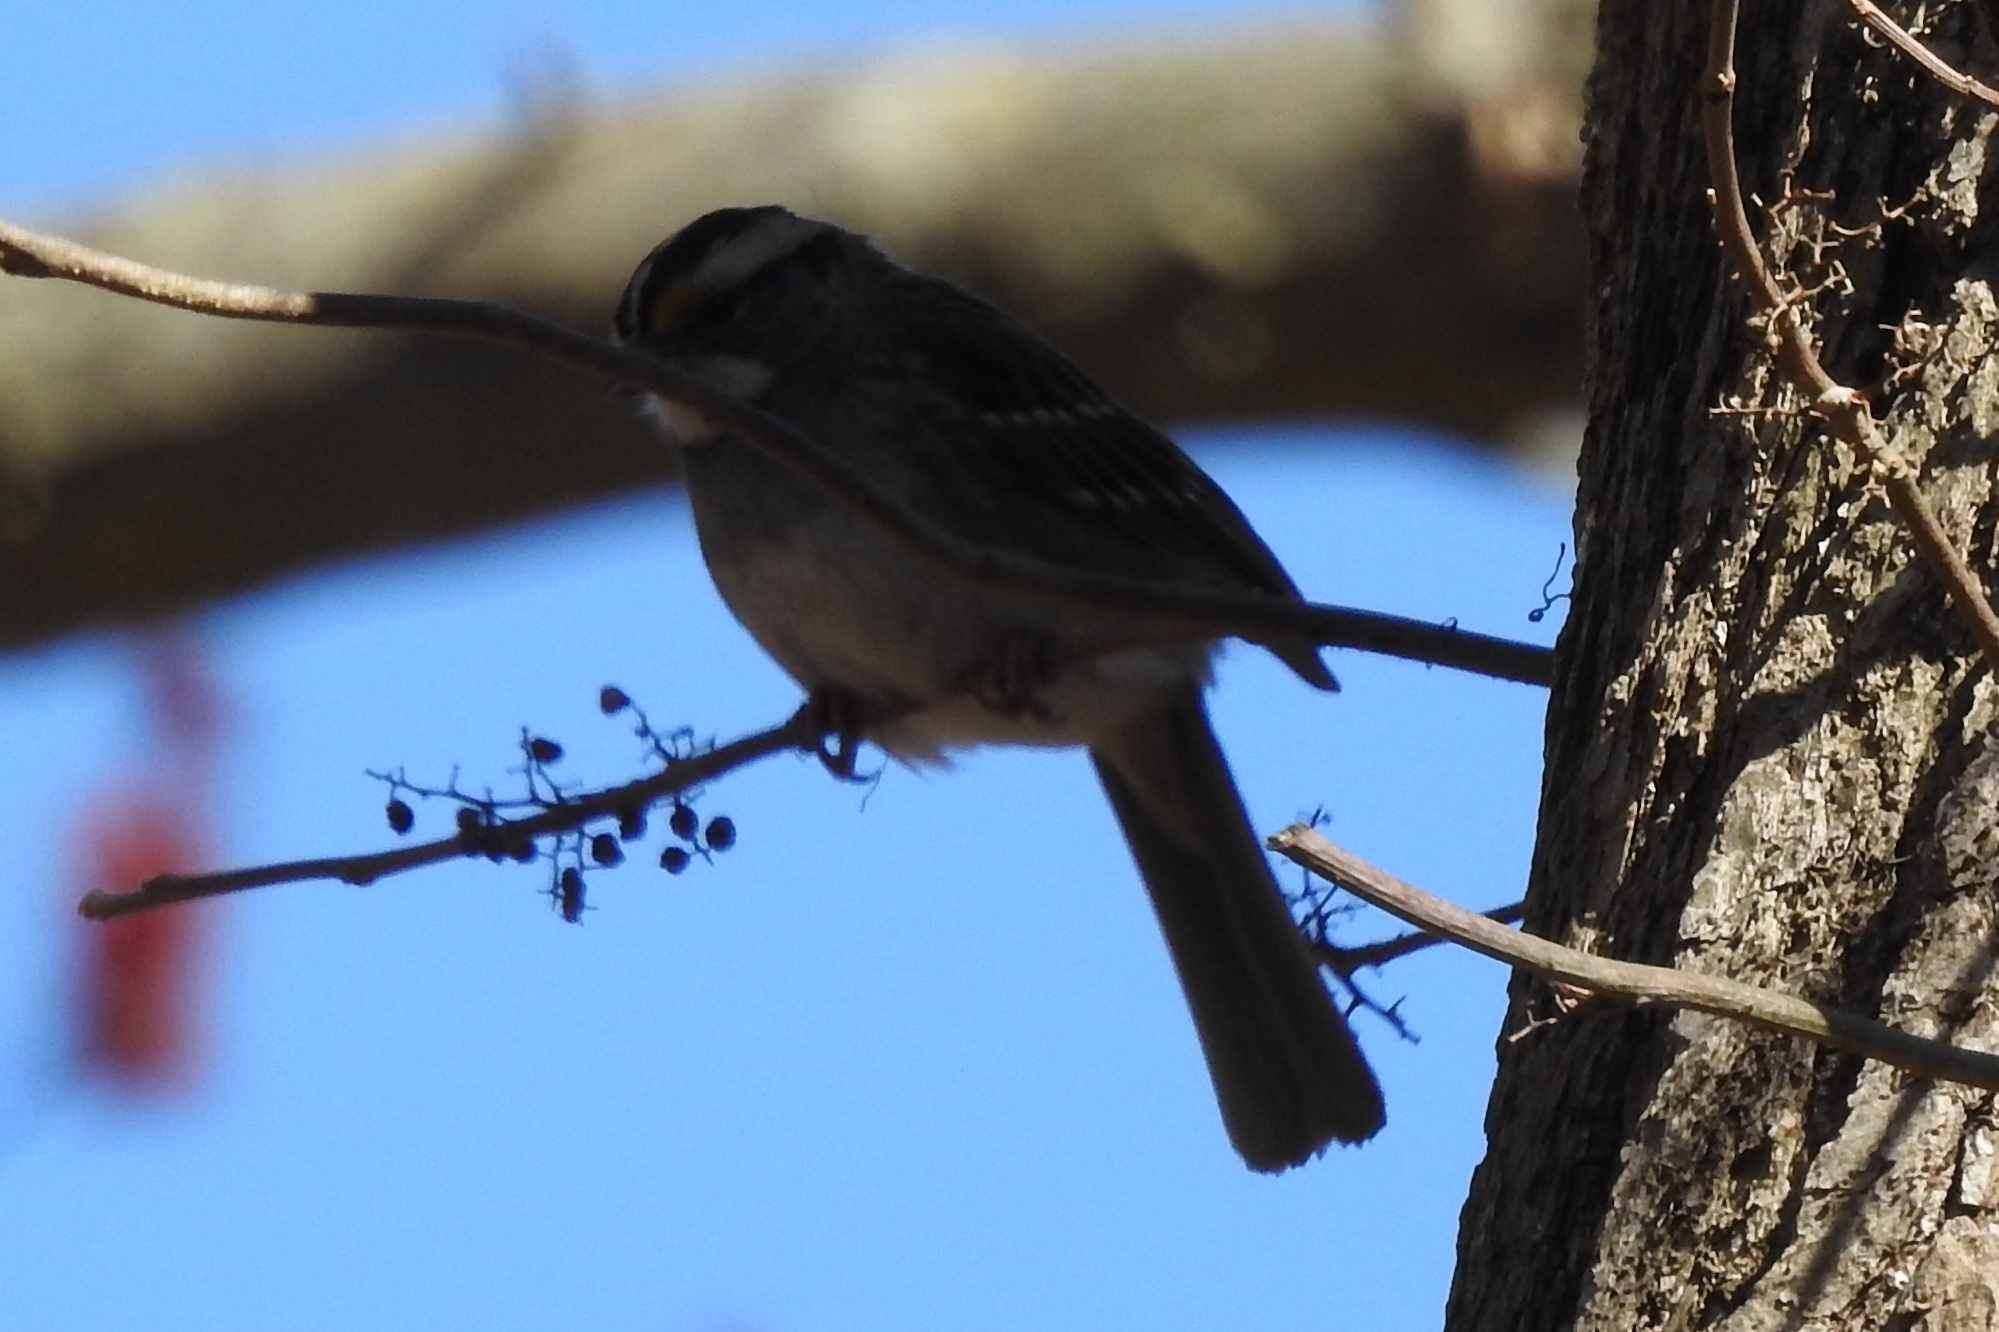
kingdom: Animalia
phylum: Chordata
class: Aves
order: Passeriformes
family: Passerellidae
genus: Zonotrichia
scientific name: Zonotrichia albicollis
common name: White-throated sparrow
